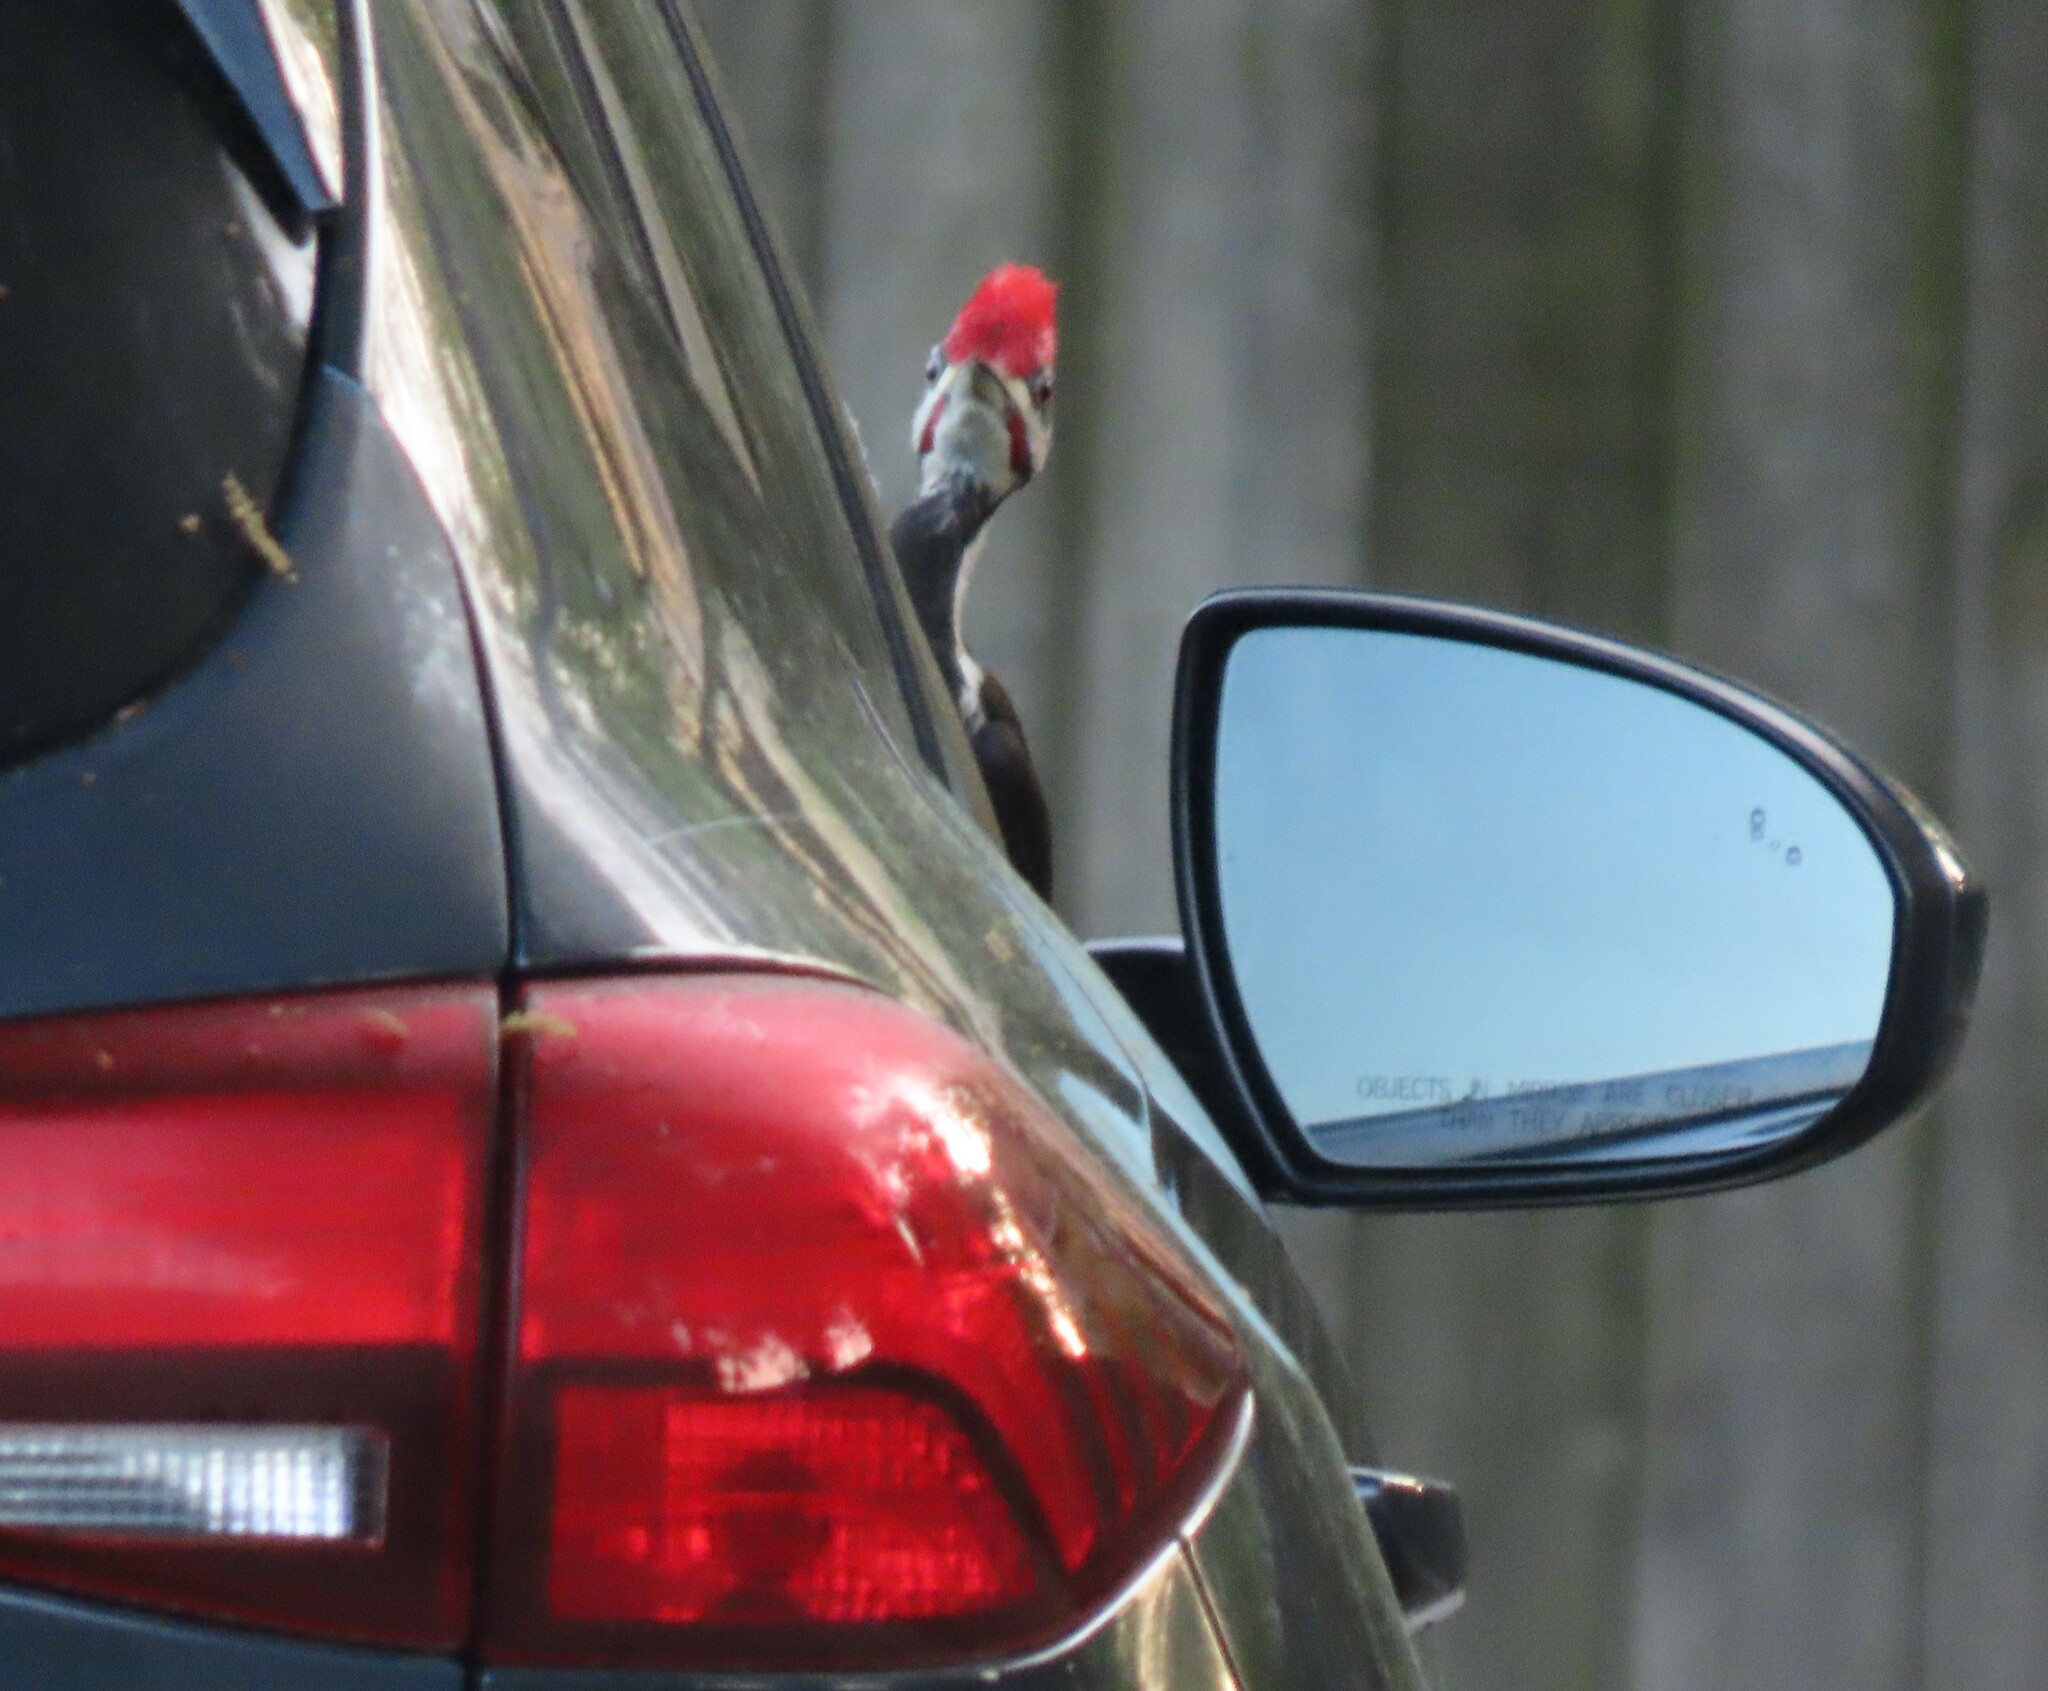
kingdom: Animalia
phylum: Chordata
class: Aves
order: Piciformes
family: Picidae
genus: Dryocopus
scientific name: Dryocopus pileatus
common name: Pileated woodpecker
